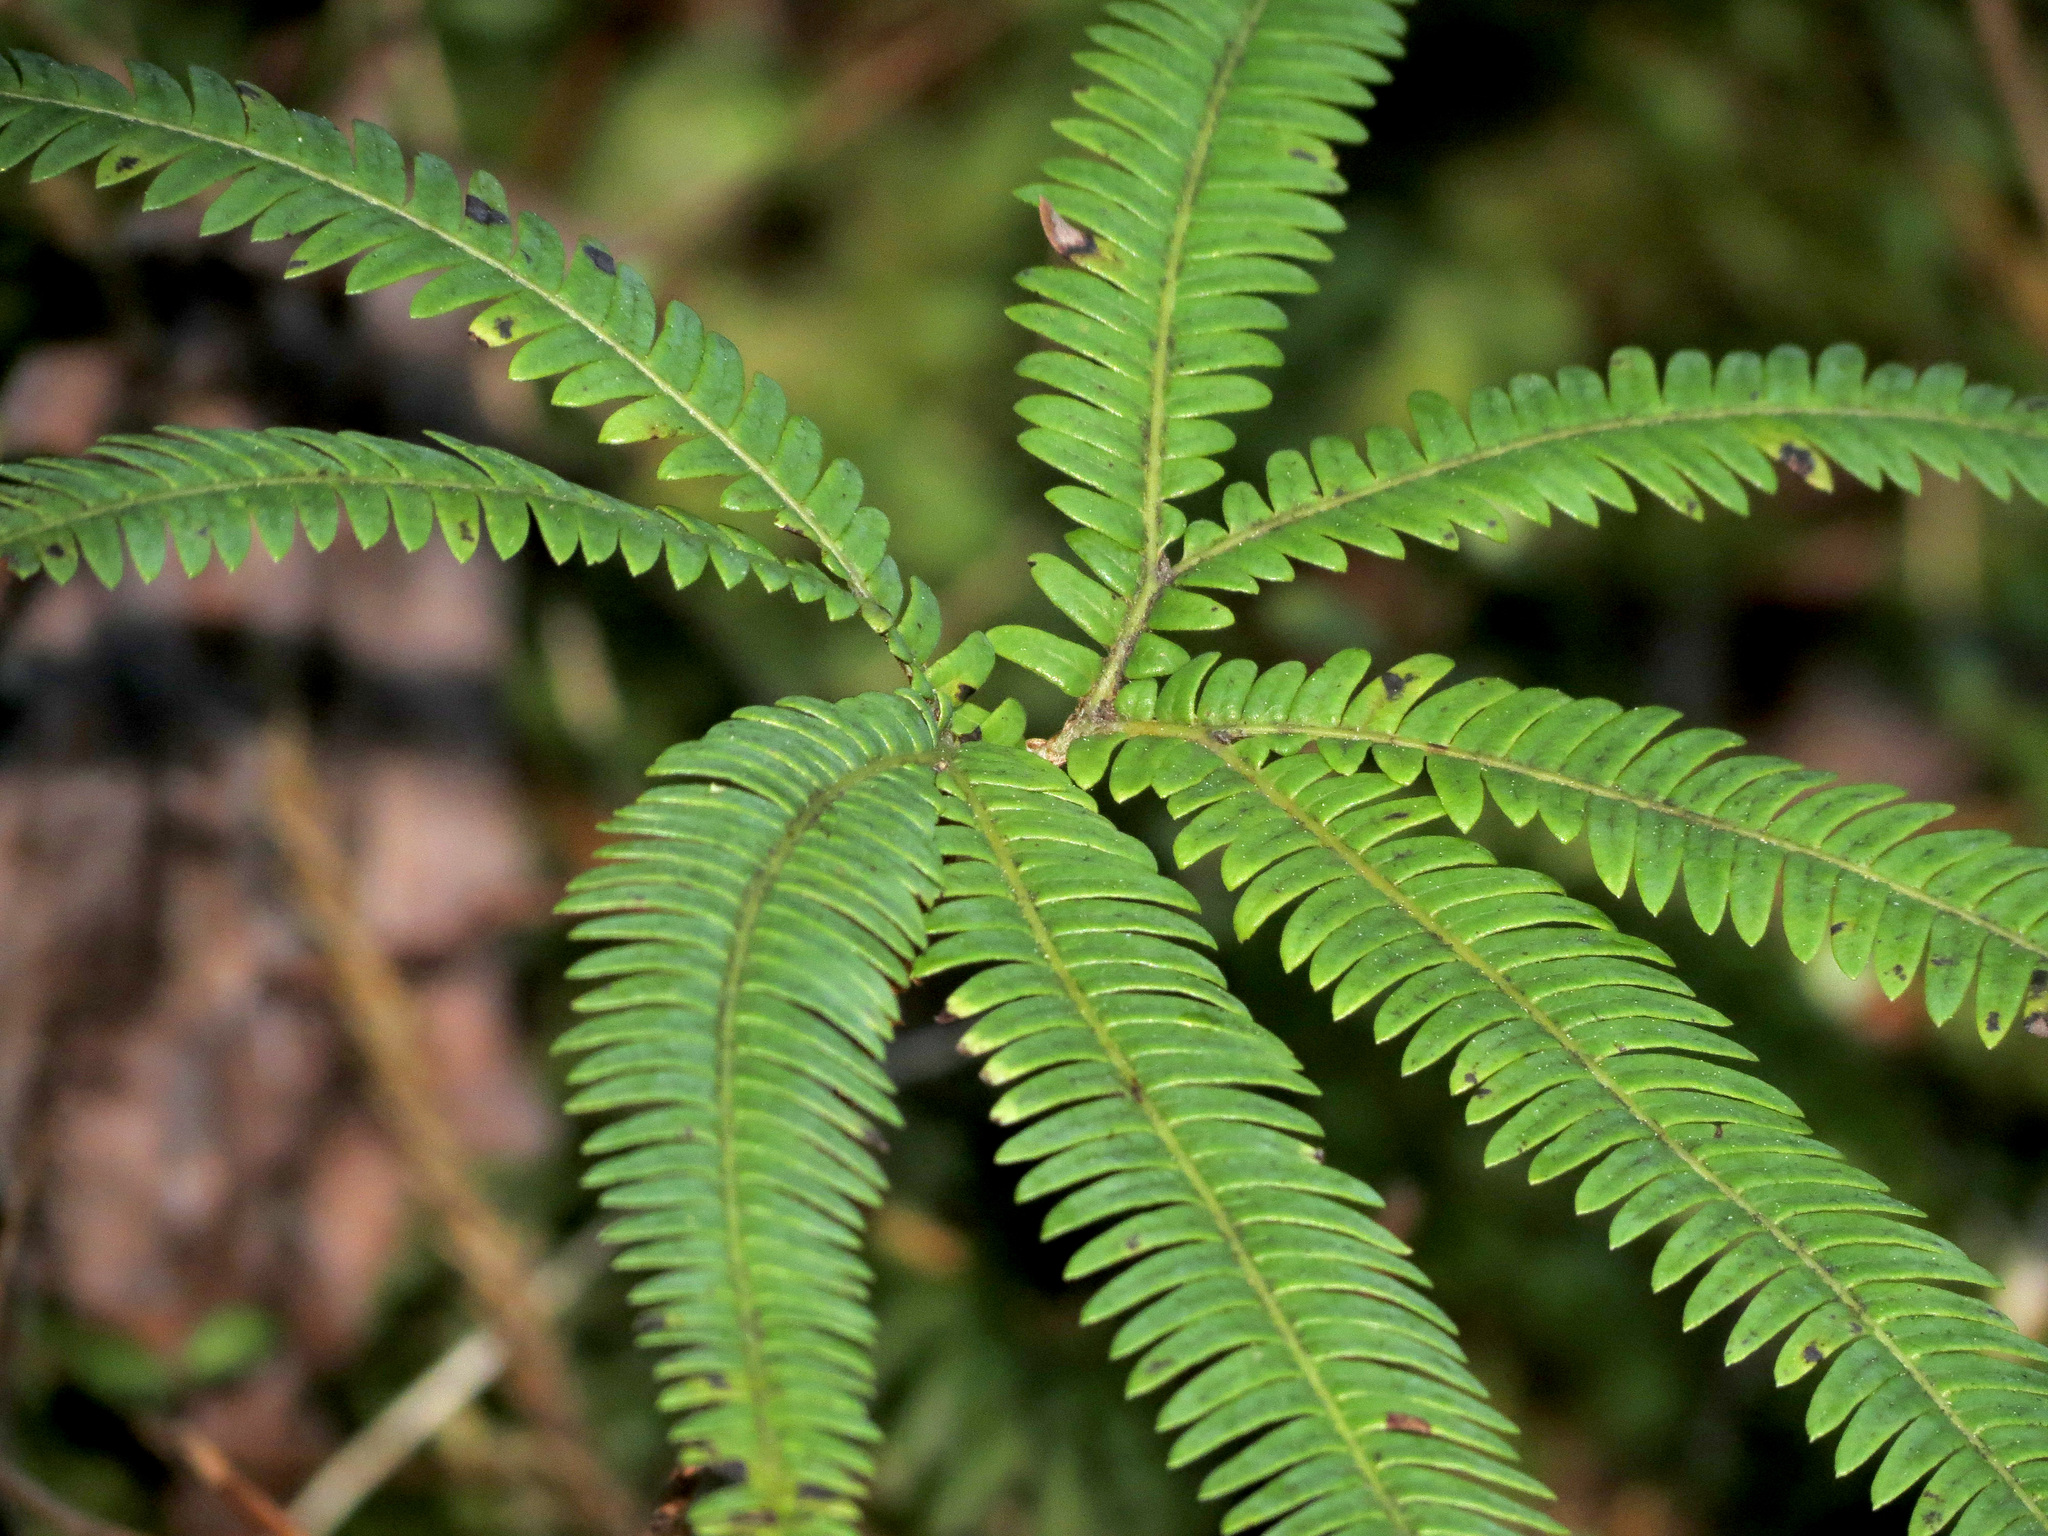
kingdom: Plantae
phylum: Tracheophyta
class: Polypodiopsida
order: Gleicheniales
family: Gleicheniaceae
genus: Sticherus
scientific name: Sticherus cunninghamii
